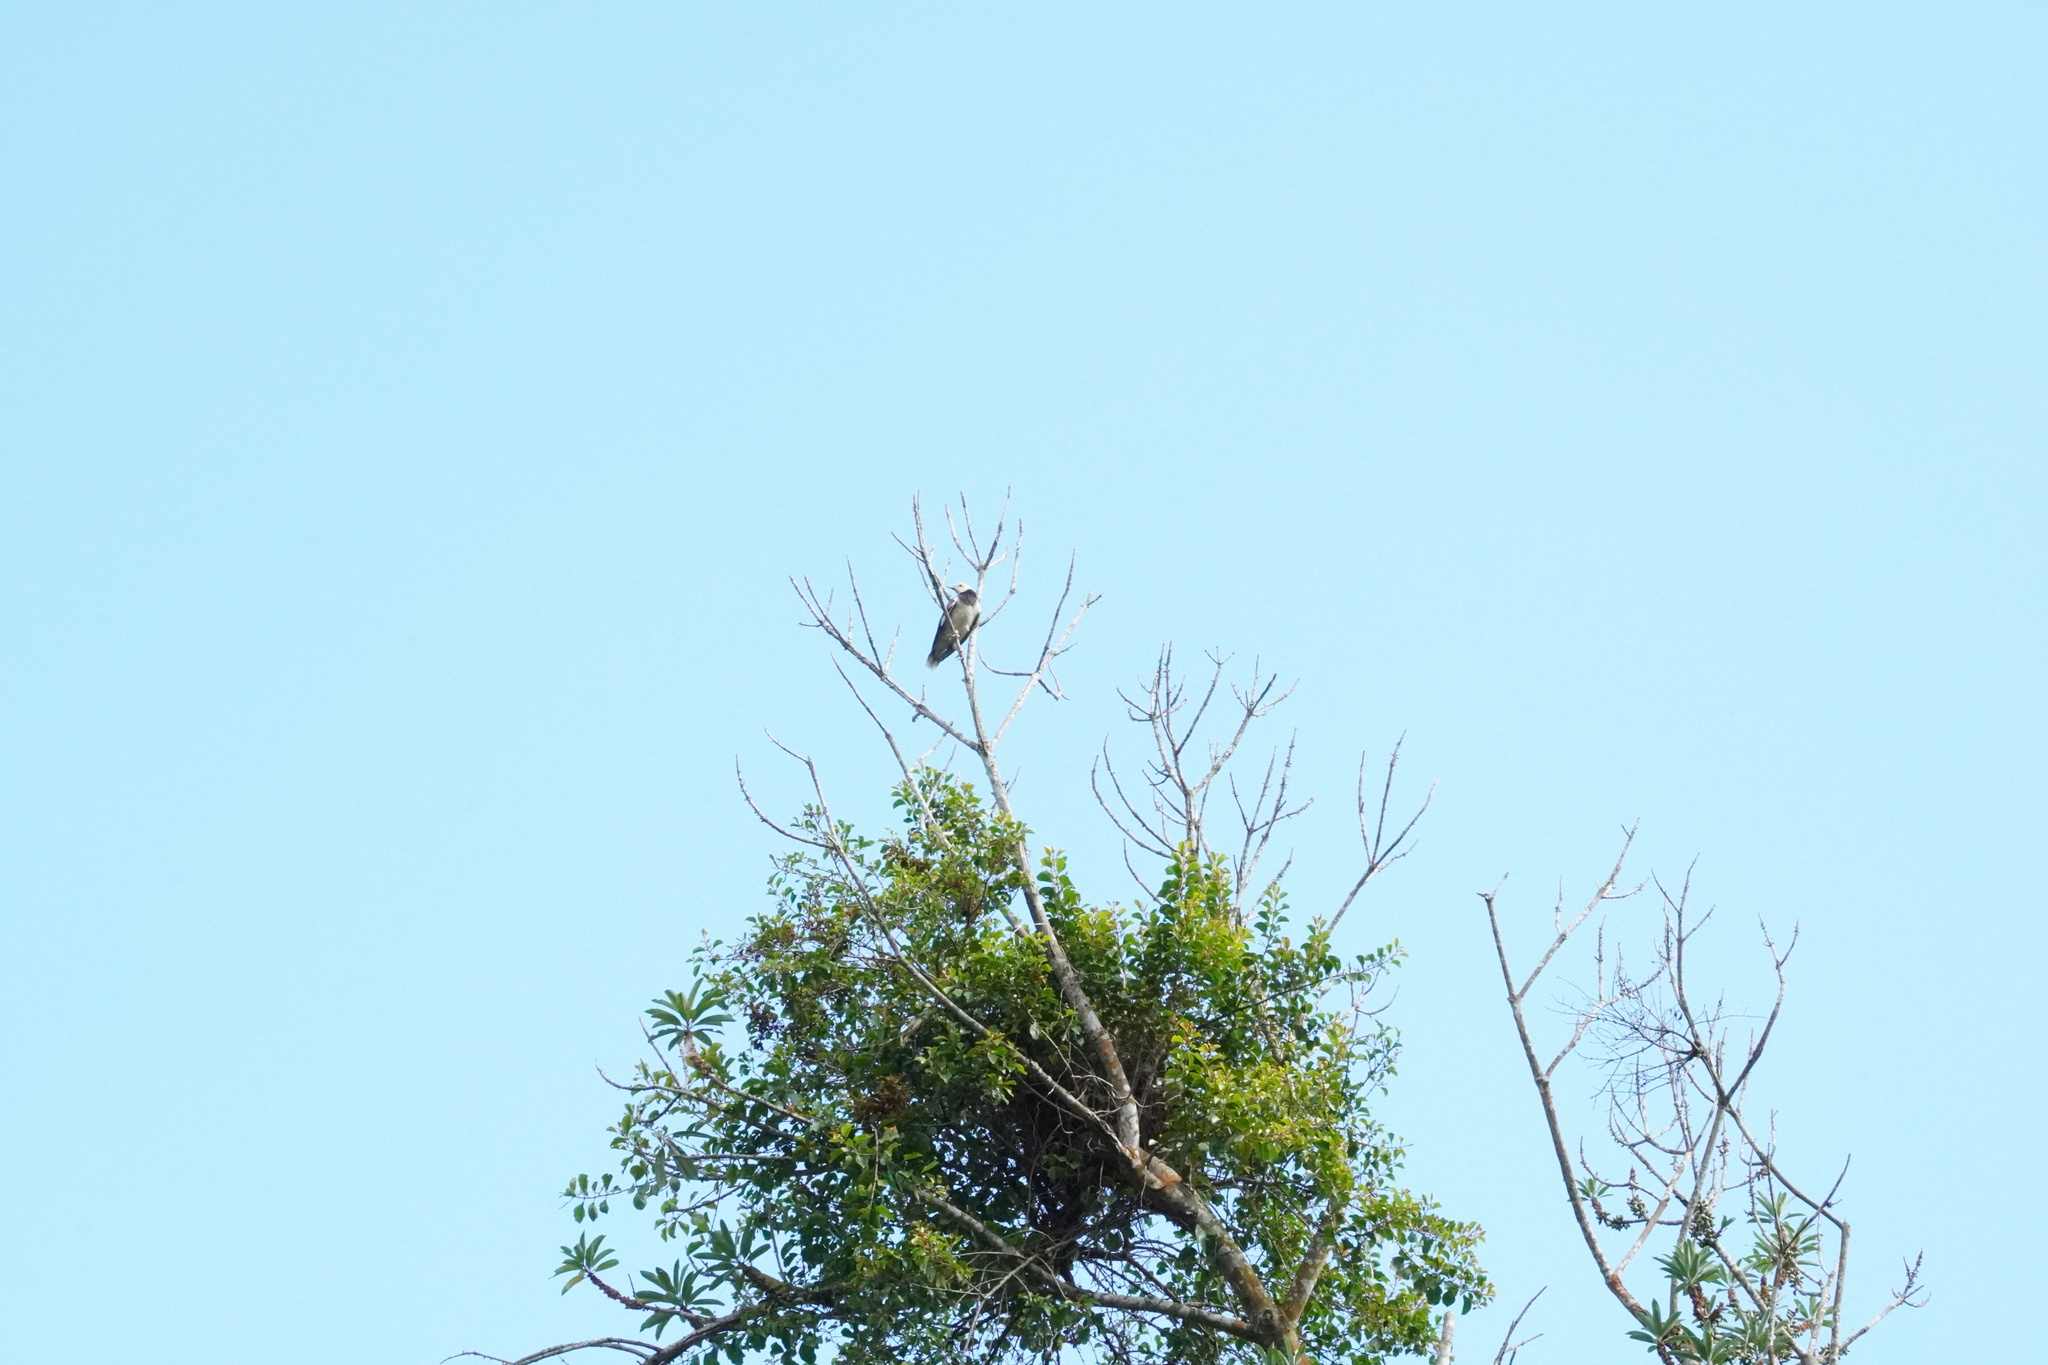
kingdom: Animalia
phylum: Chordata
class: Aves
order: Passeriformes
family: Sturnidae
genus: Gracupica
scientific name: Gracupica nigricollis
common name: Black-collared starling
